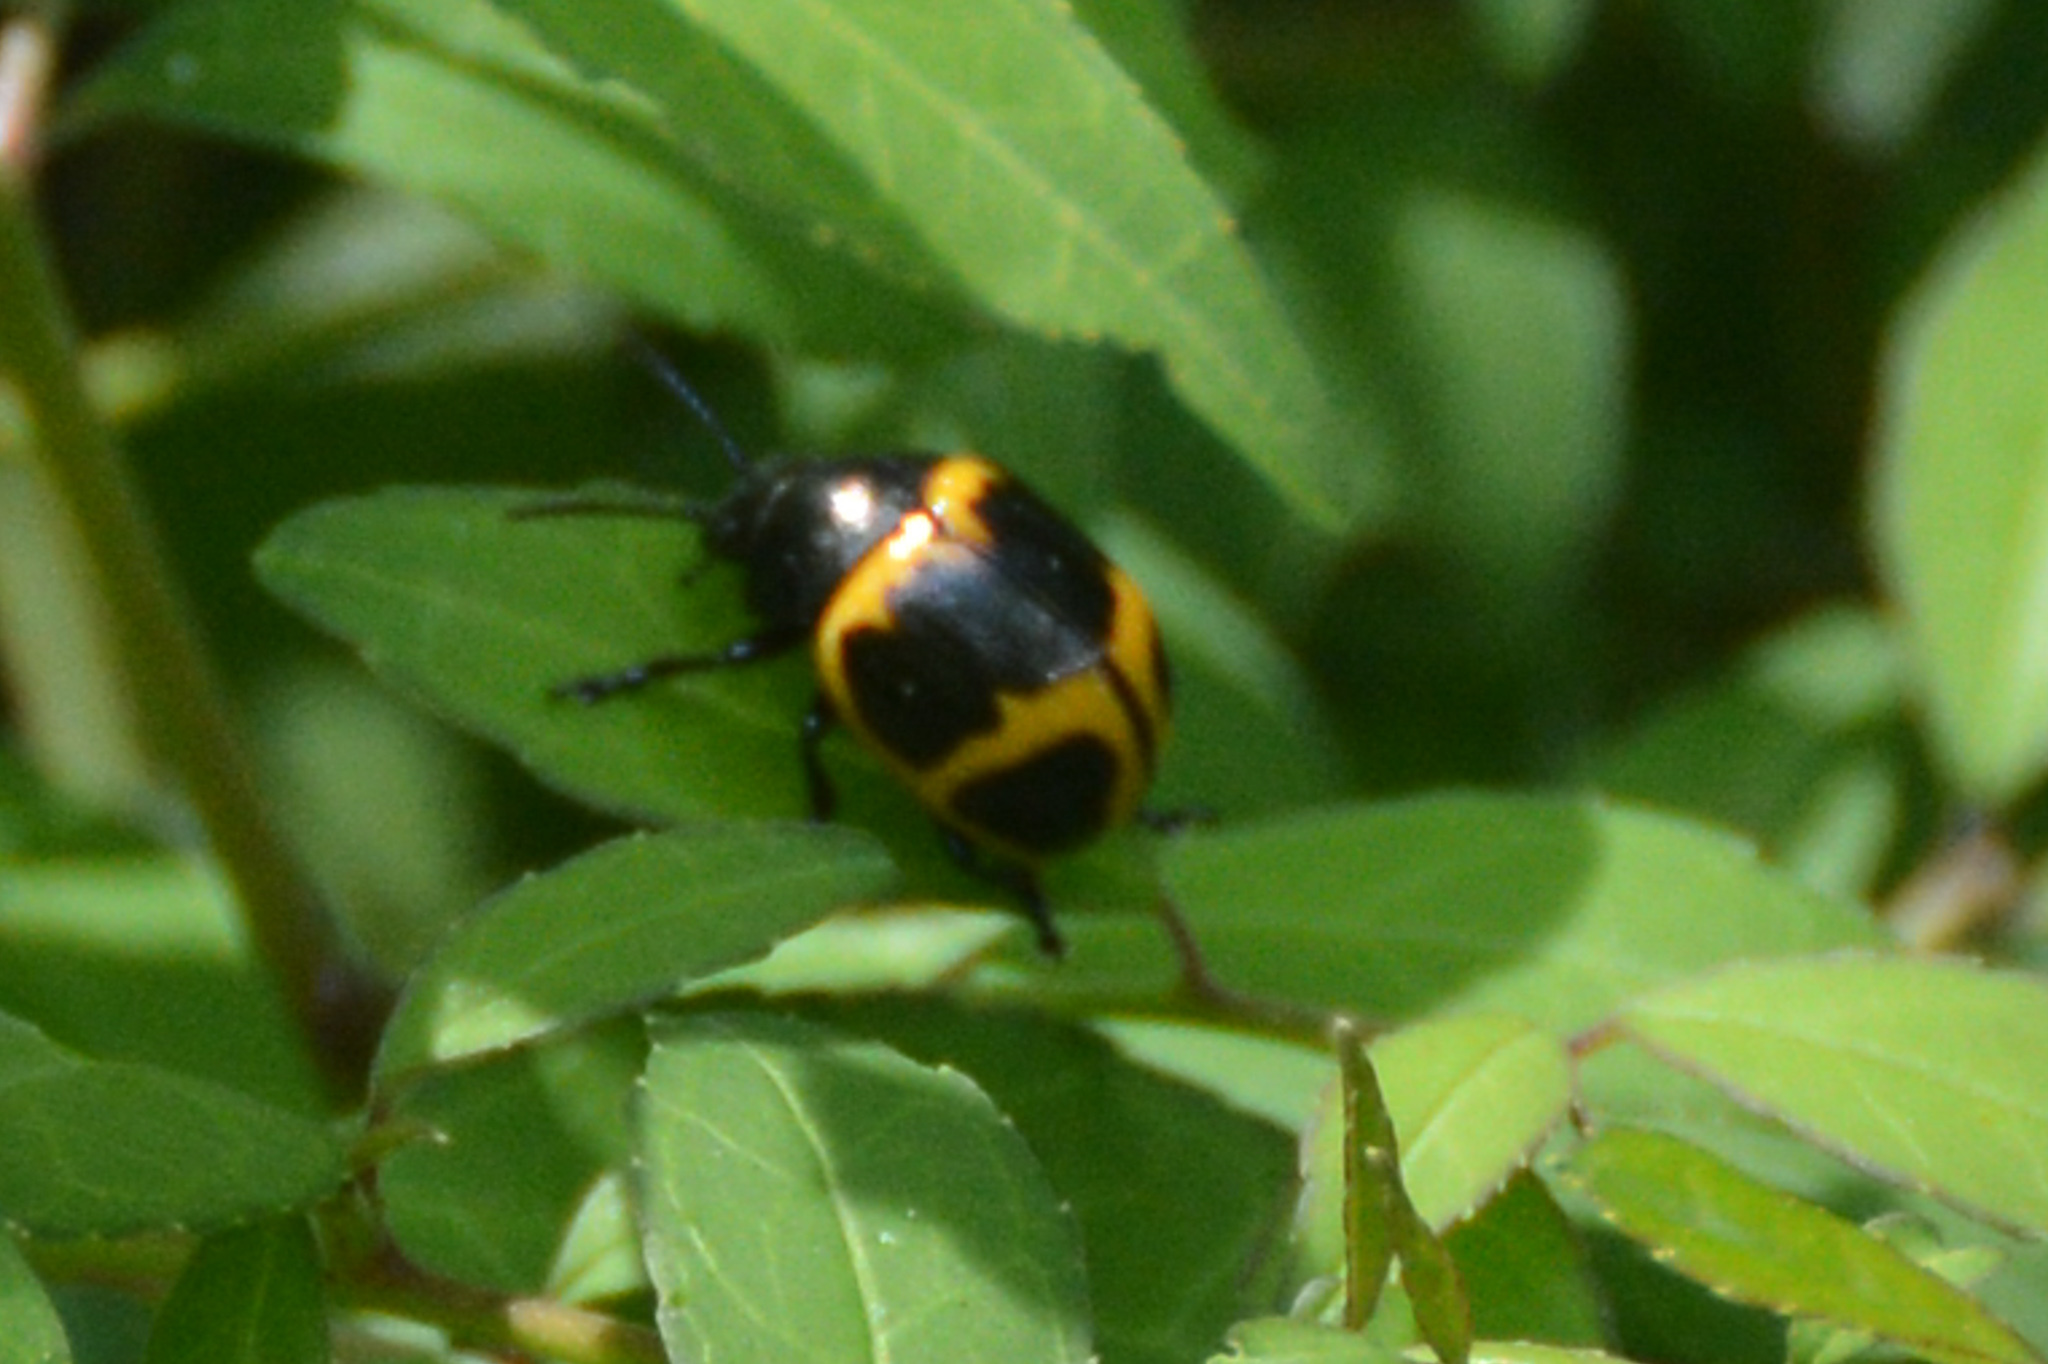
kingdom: Animalia
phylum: Arthropoda
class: Insecta
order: Coleoptera
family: Chrysomelidae
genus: Labidomera
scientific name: Labidomera clivicollis
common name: Swamp milkweed leaf beetle
